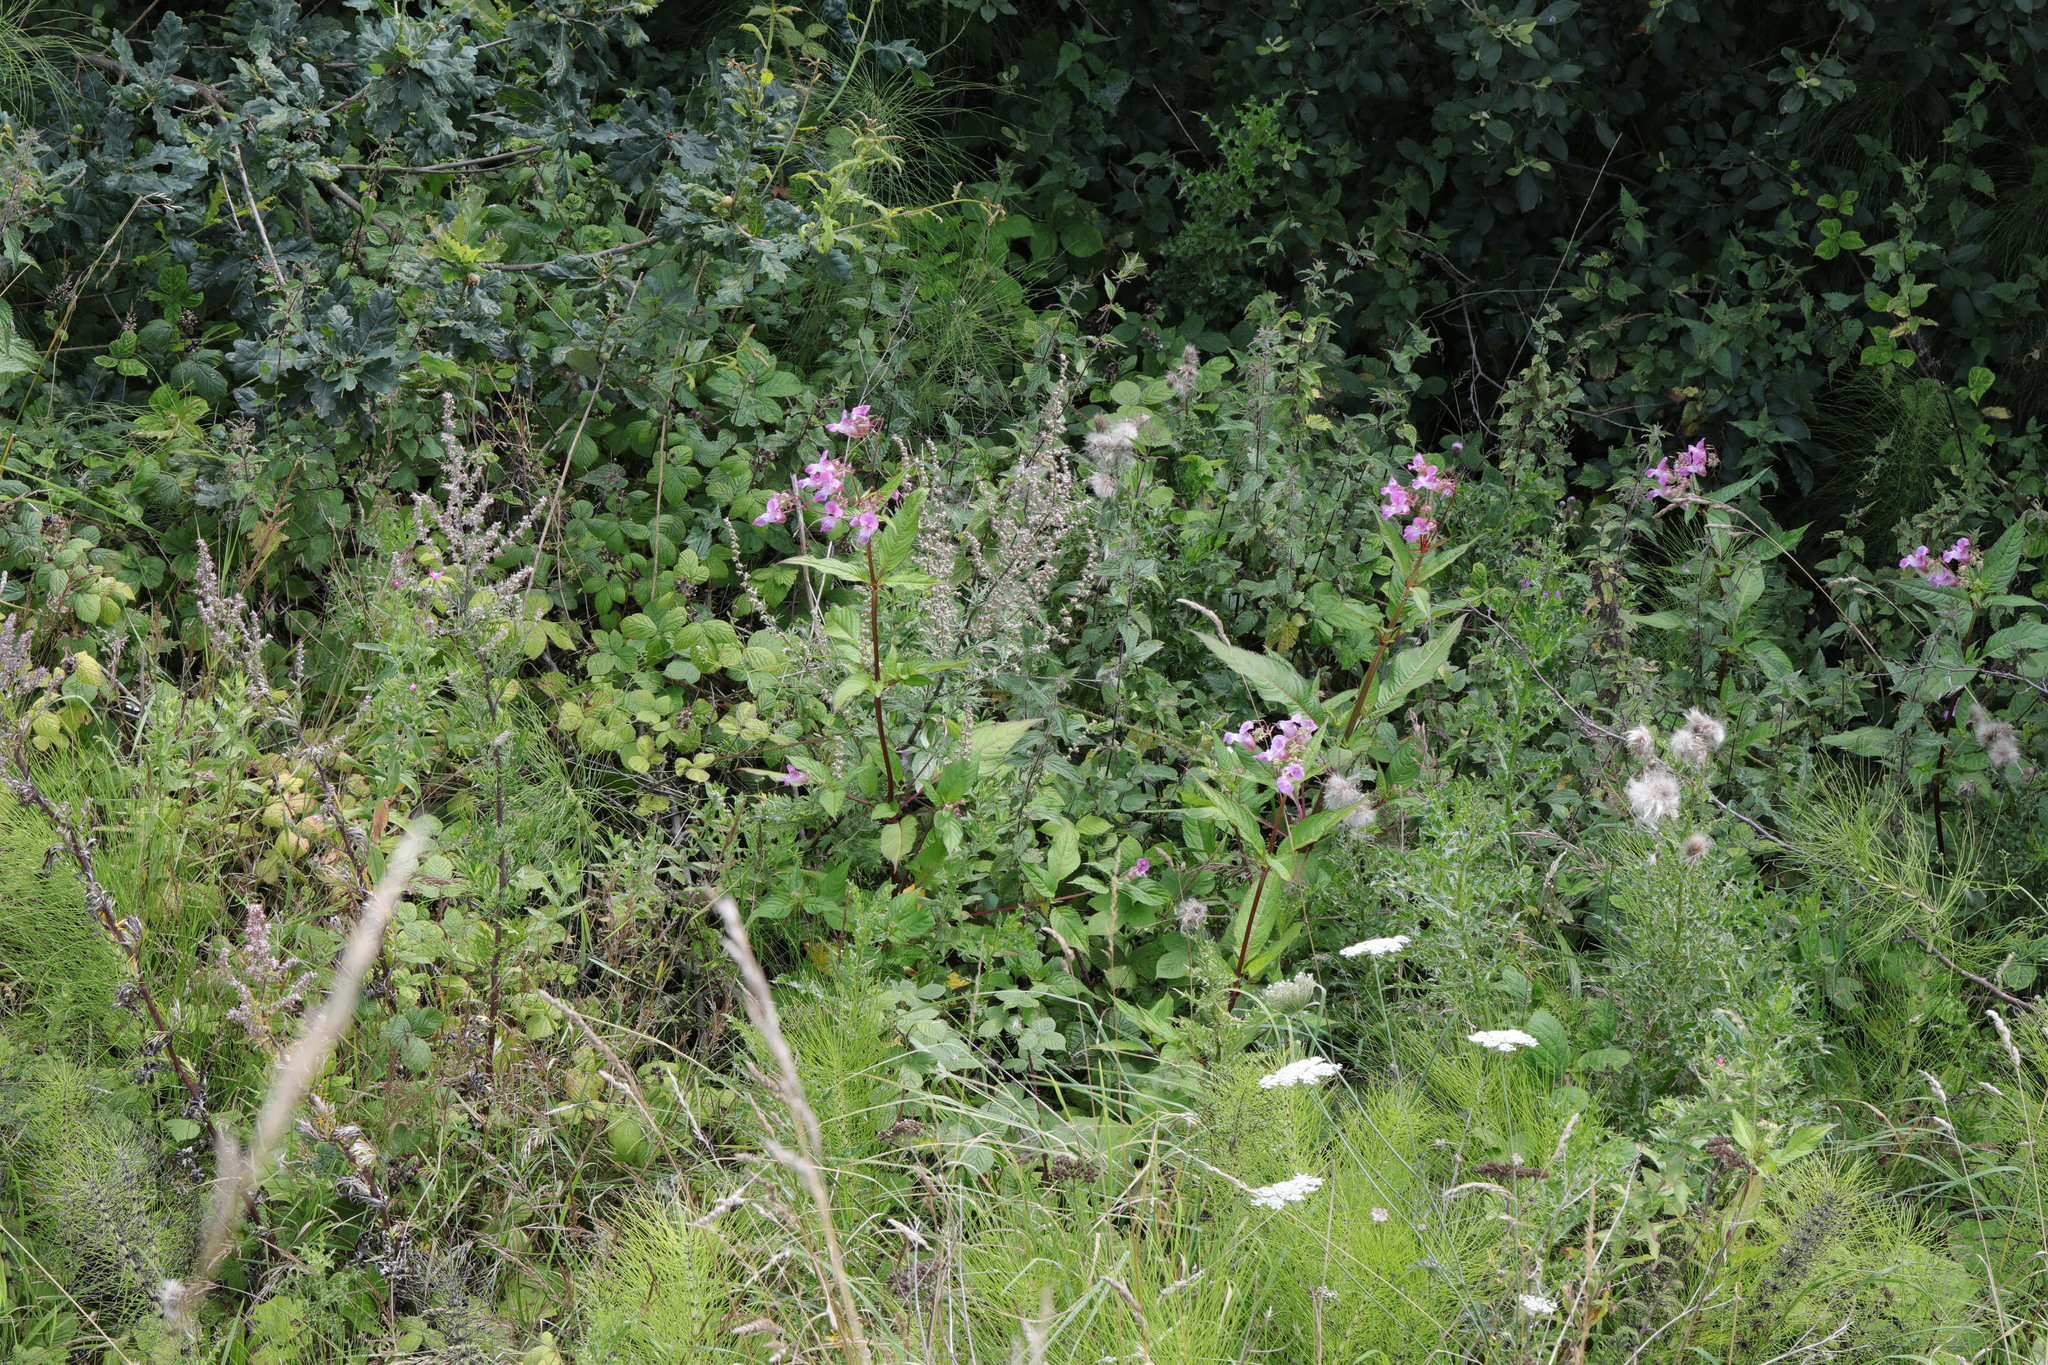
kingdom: Plantae
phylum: Tracheophyta
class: Magnoliopsida
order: Ericales
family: Balsaminaceae
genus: Impatiens
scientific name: Impatiens glandulifera
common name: Himalayan balsam
